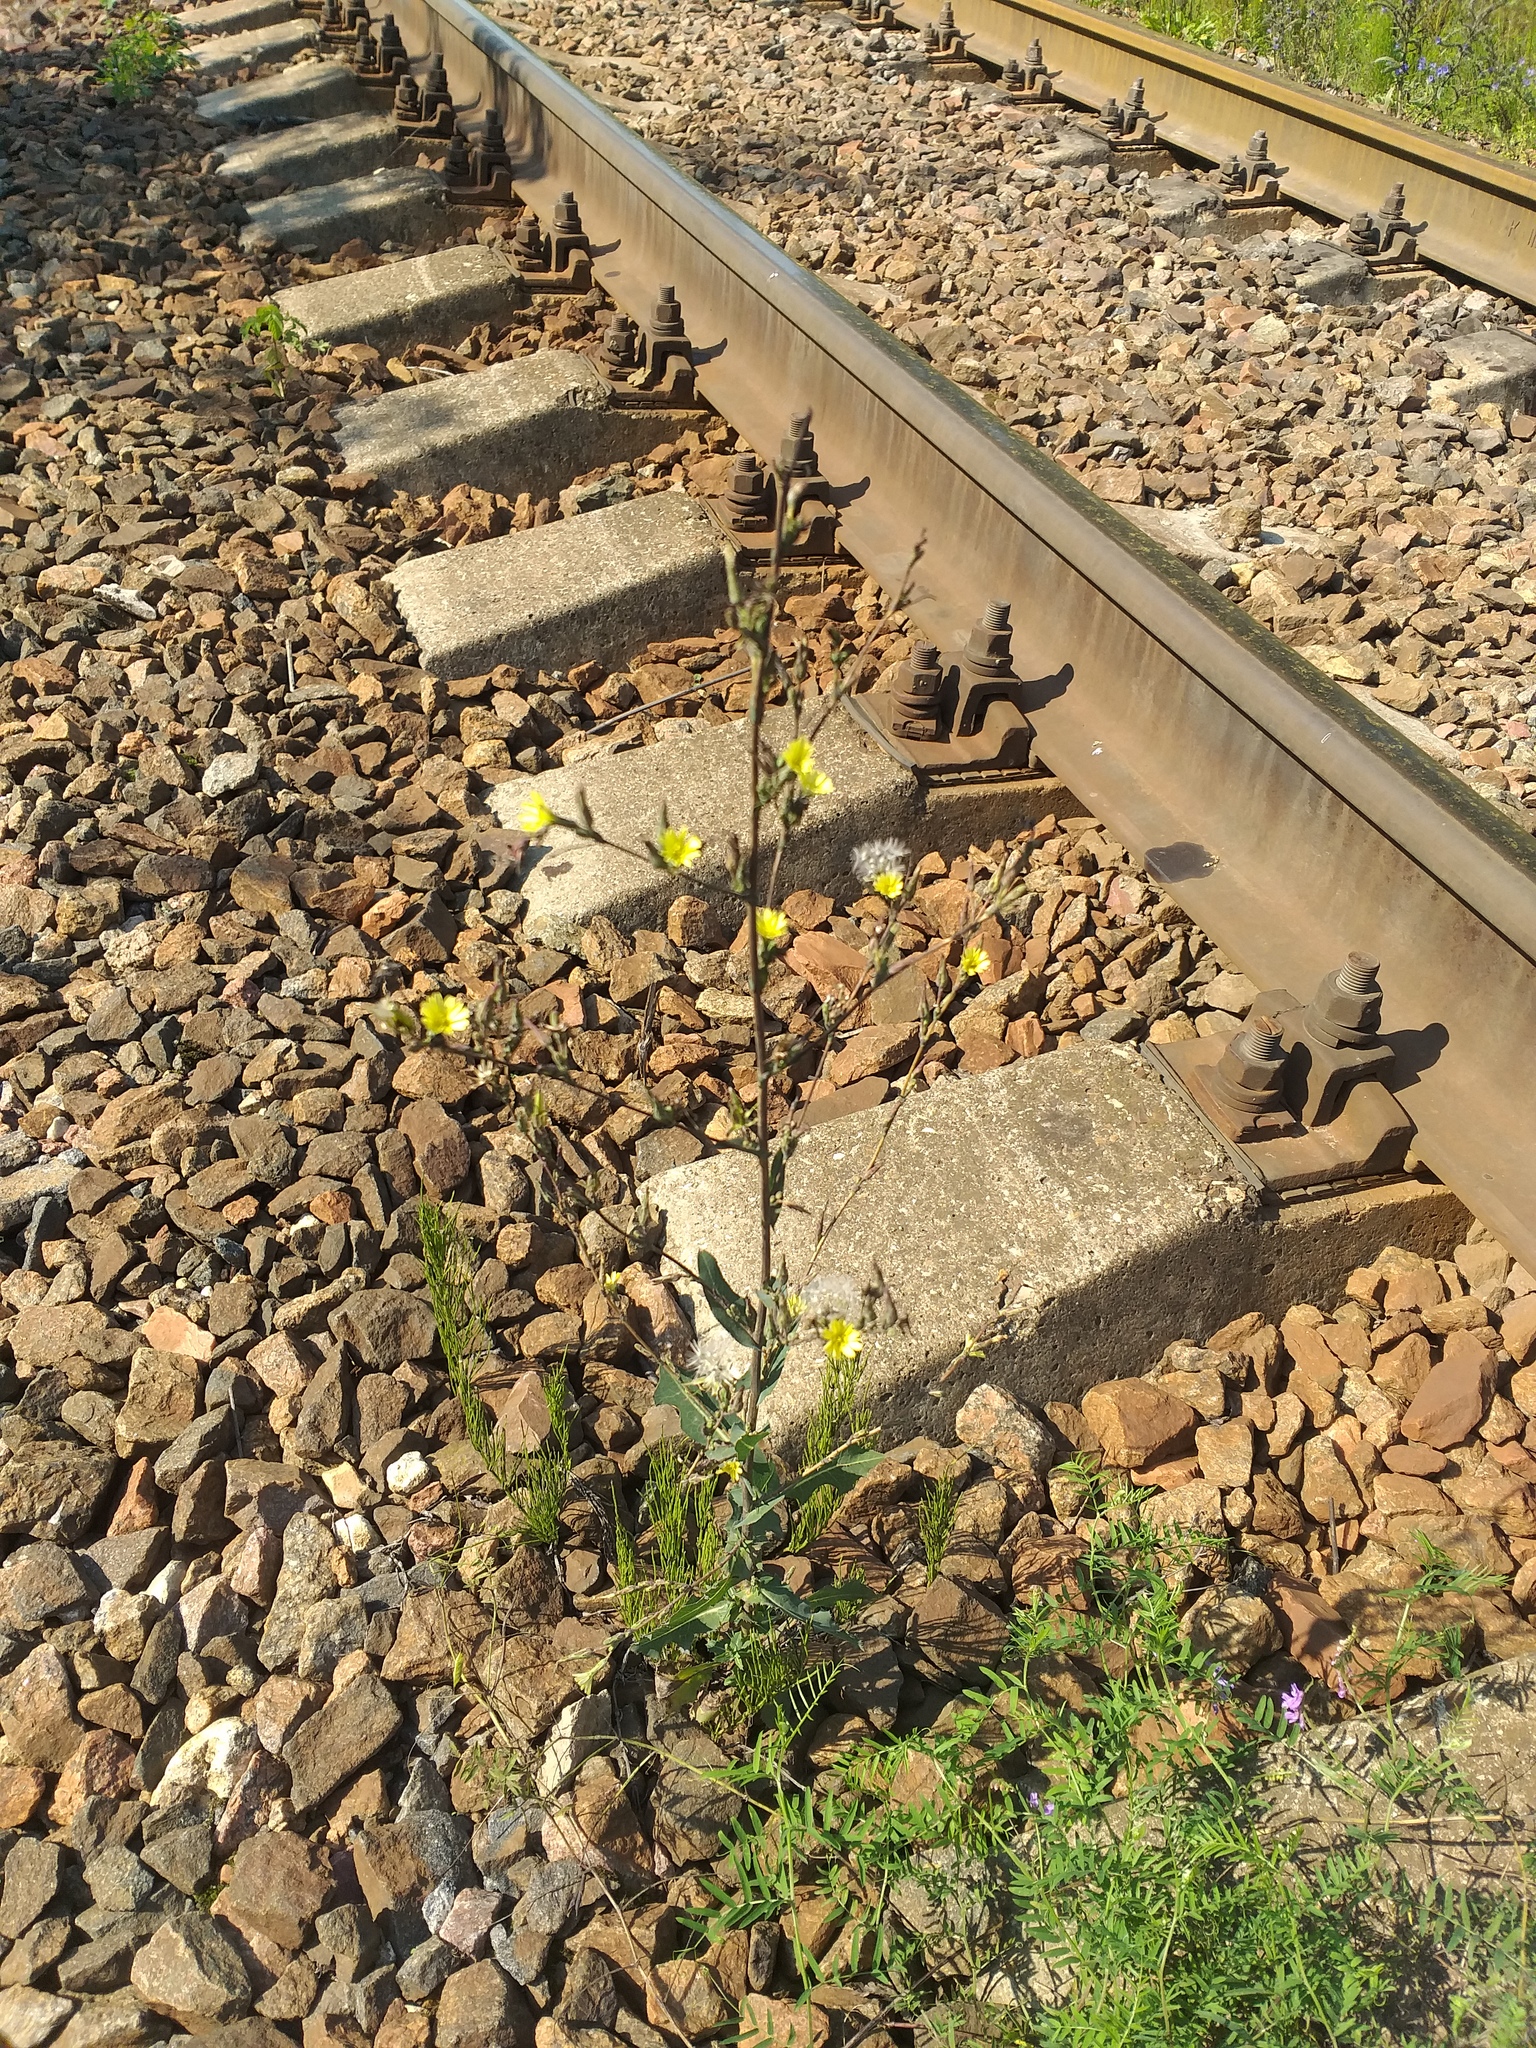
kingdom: Plantae
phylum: Tracheophyta
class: Magnoliopsida
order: Asterales
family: Asteraceae
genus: Lactuca
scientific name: Lactuca serriola
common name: Prickly lettuce
